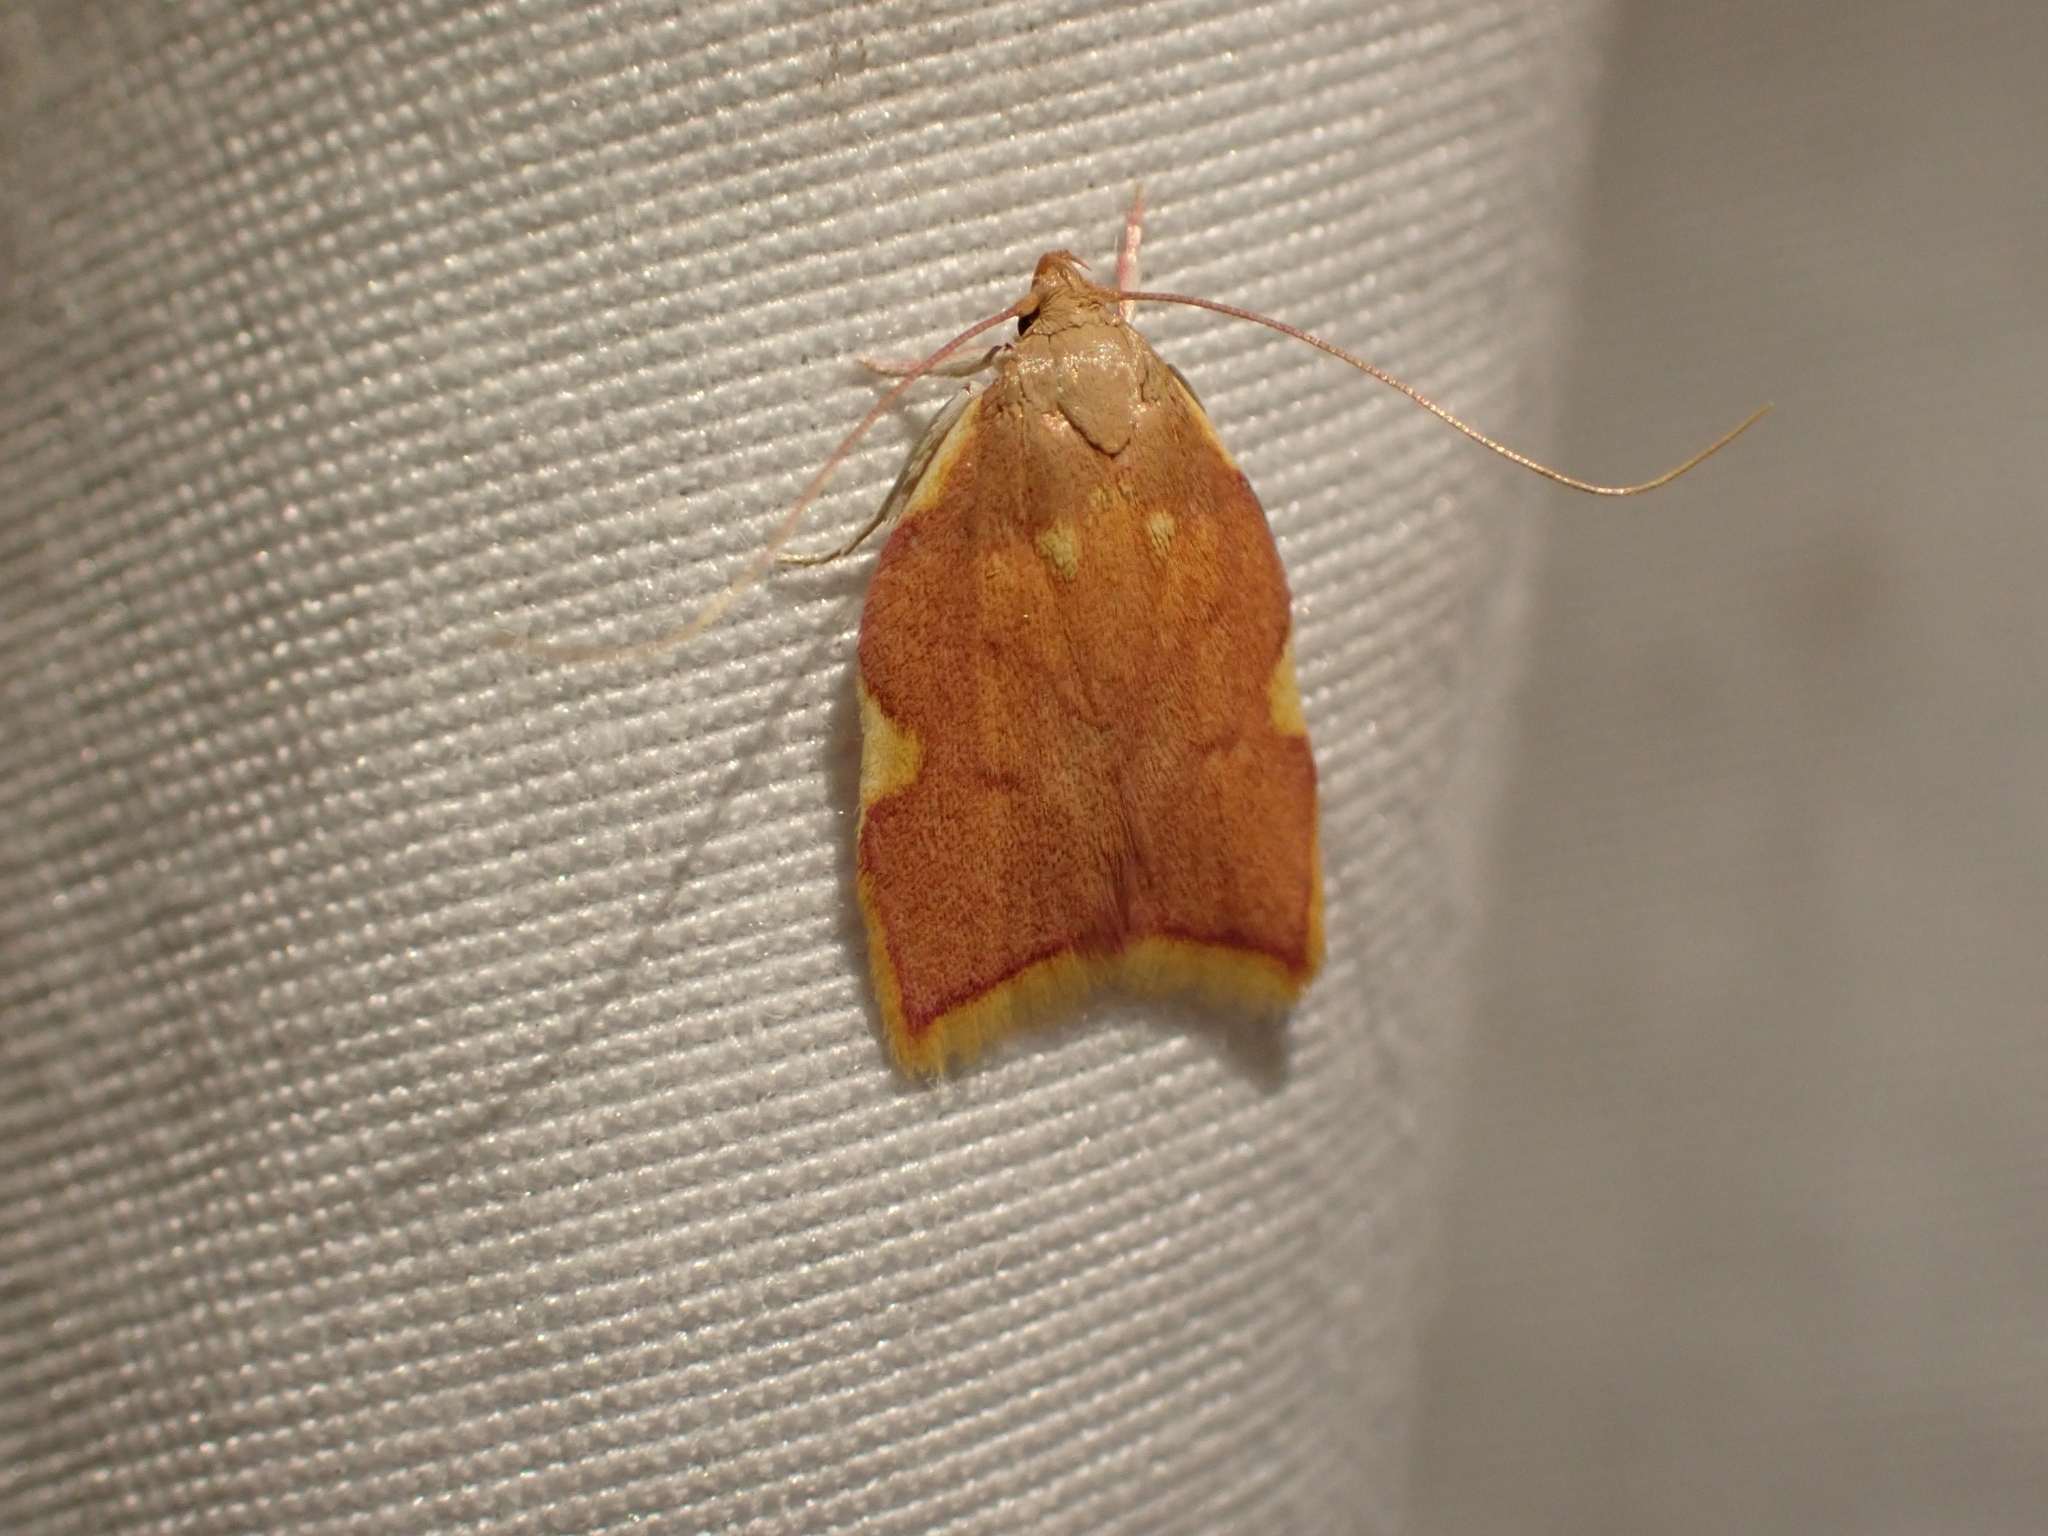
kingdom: Animalia
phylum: Arthropoda
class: Insecta
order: Lepidoptera
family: Peleopodidae
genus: Carcina
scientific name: Carcina quercana
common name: Moth
